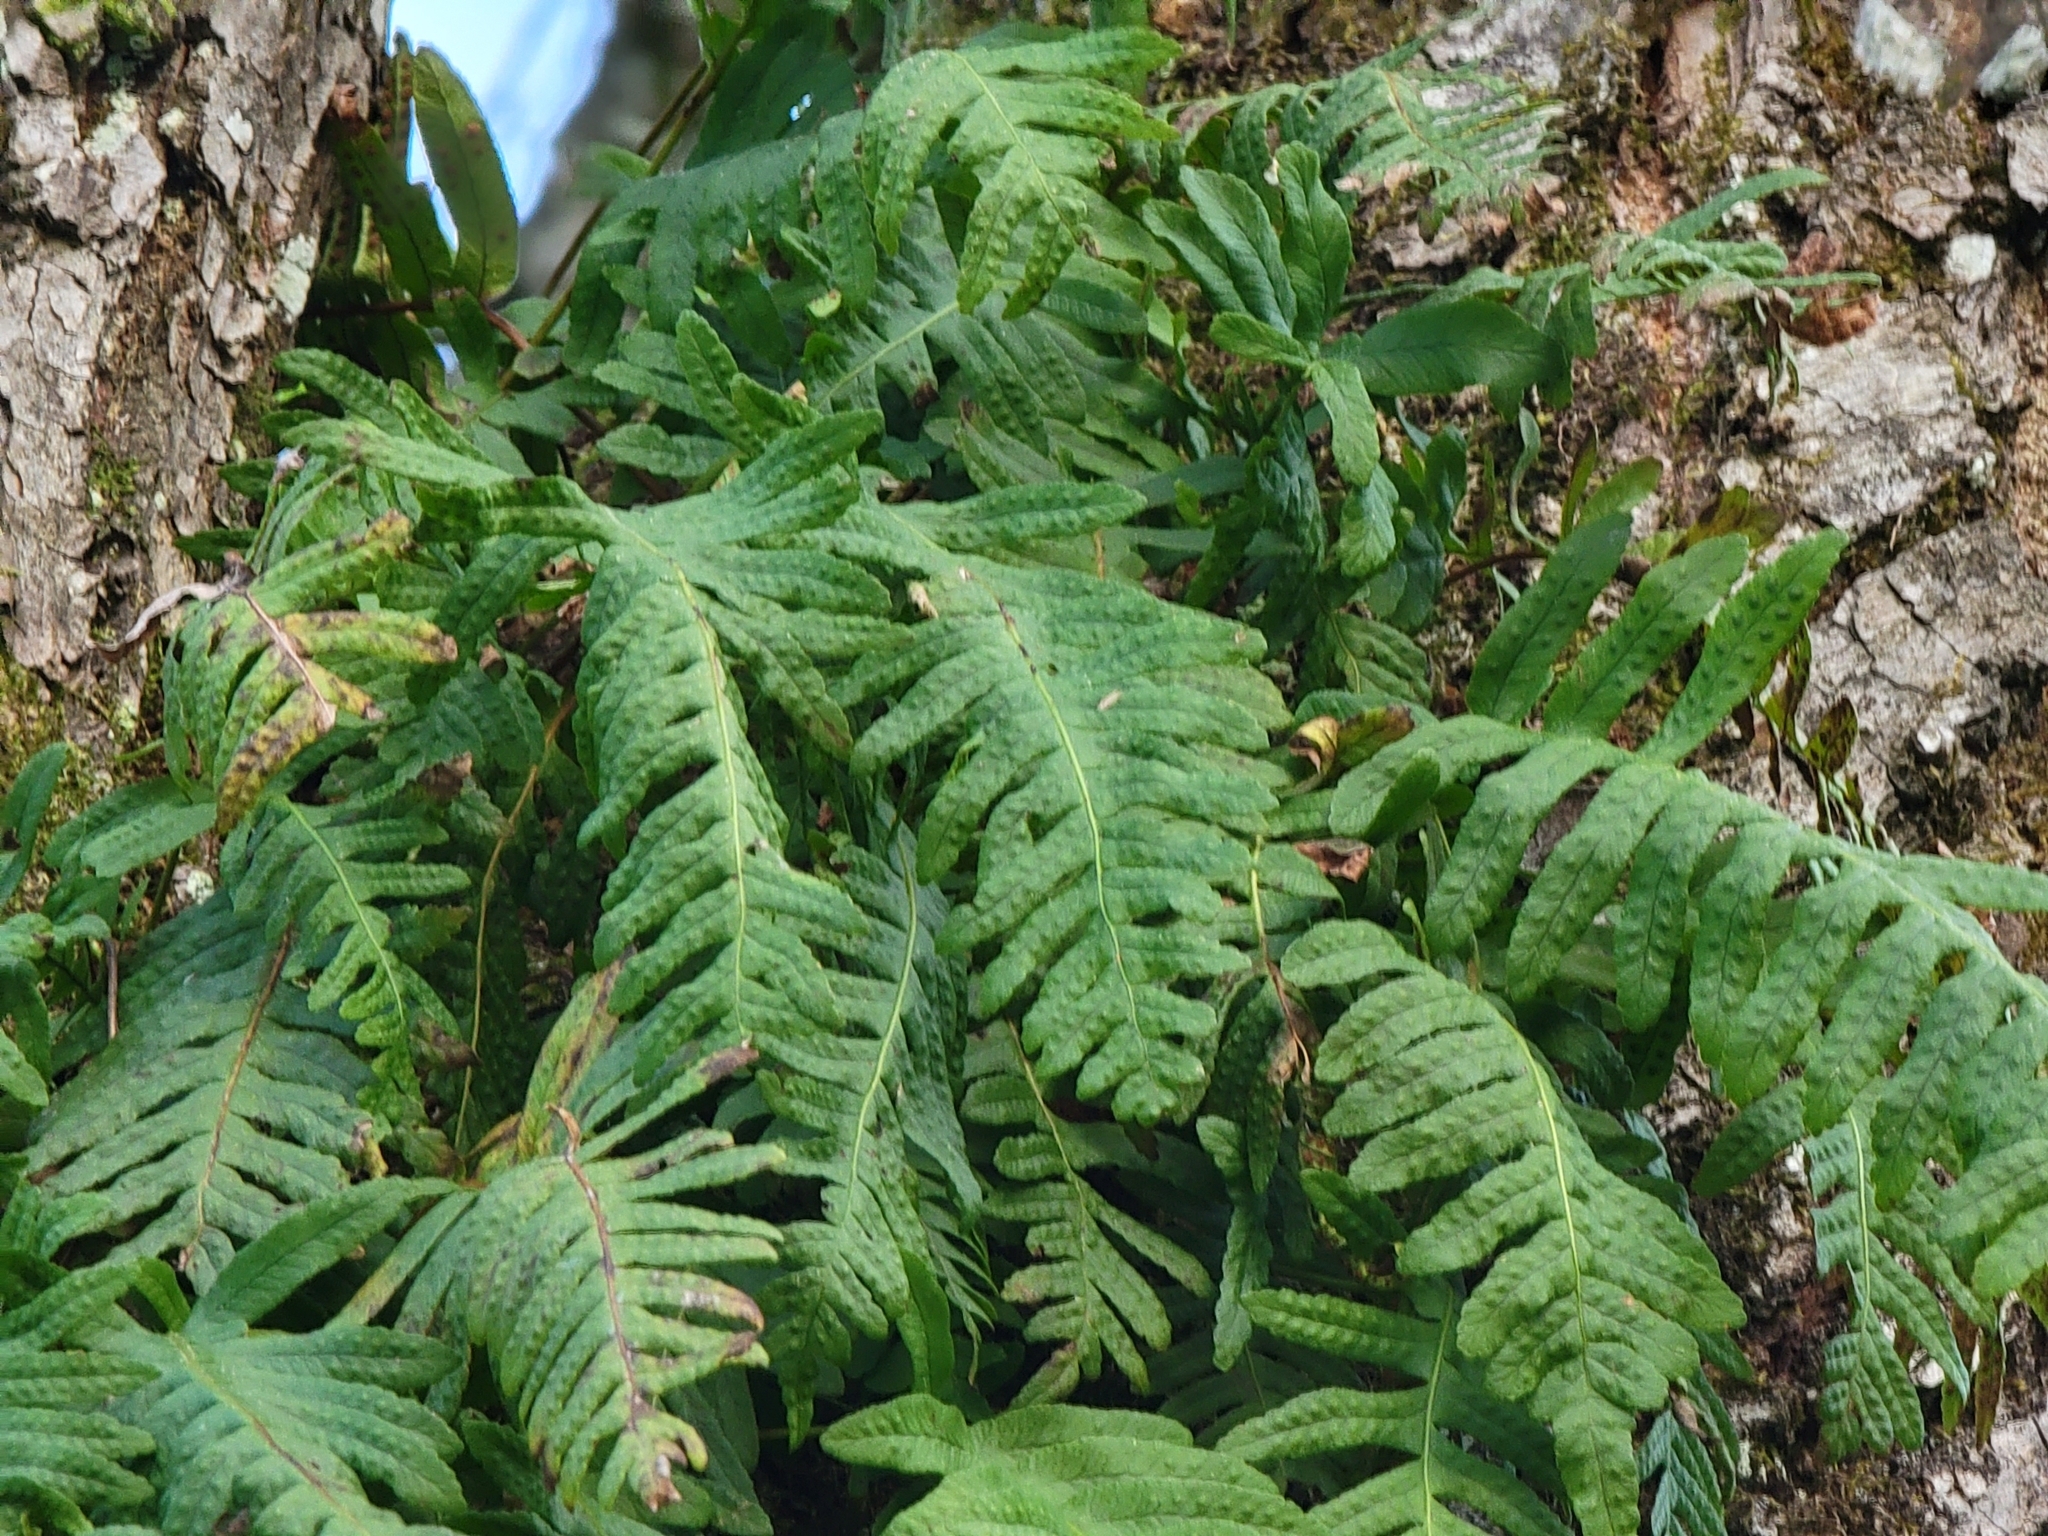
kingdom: Plantae
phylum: Tracheophyta
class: Polypodiopsida
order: Polypodiales
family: Polypodiaceae
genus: Polypodium
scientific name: Polypodium vulgare
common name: Common polypody
